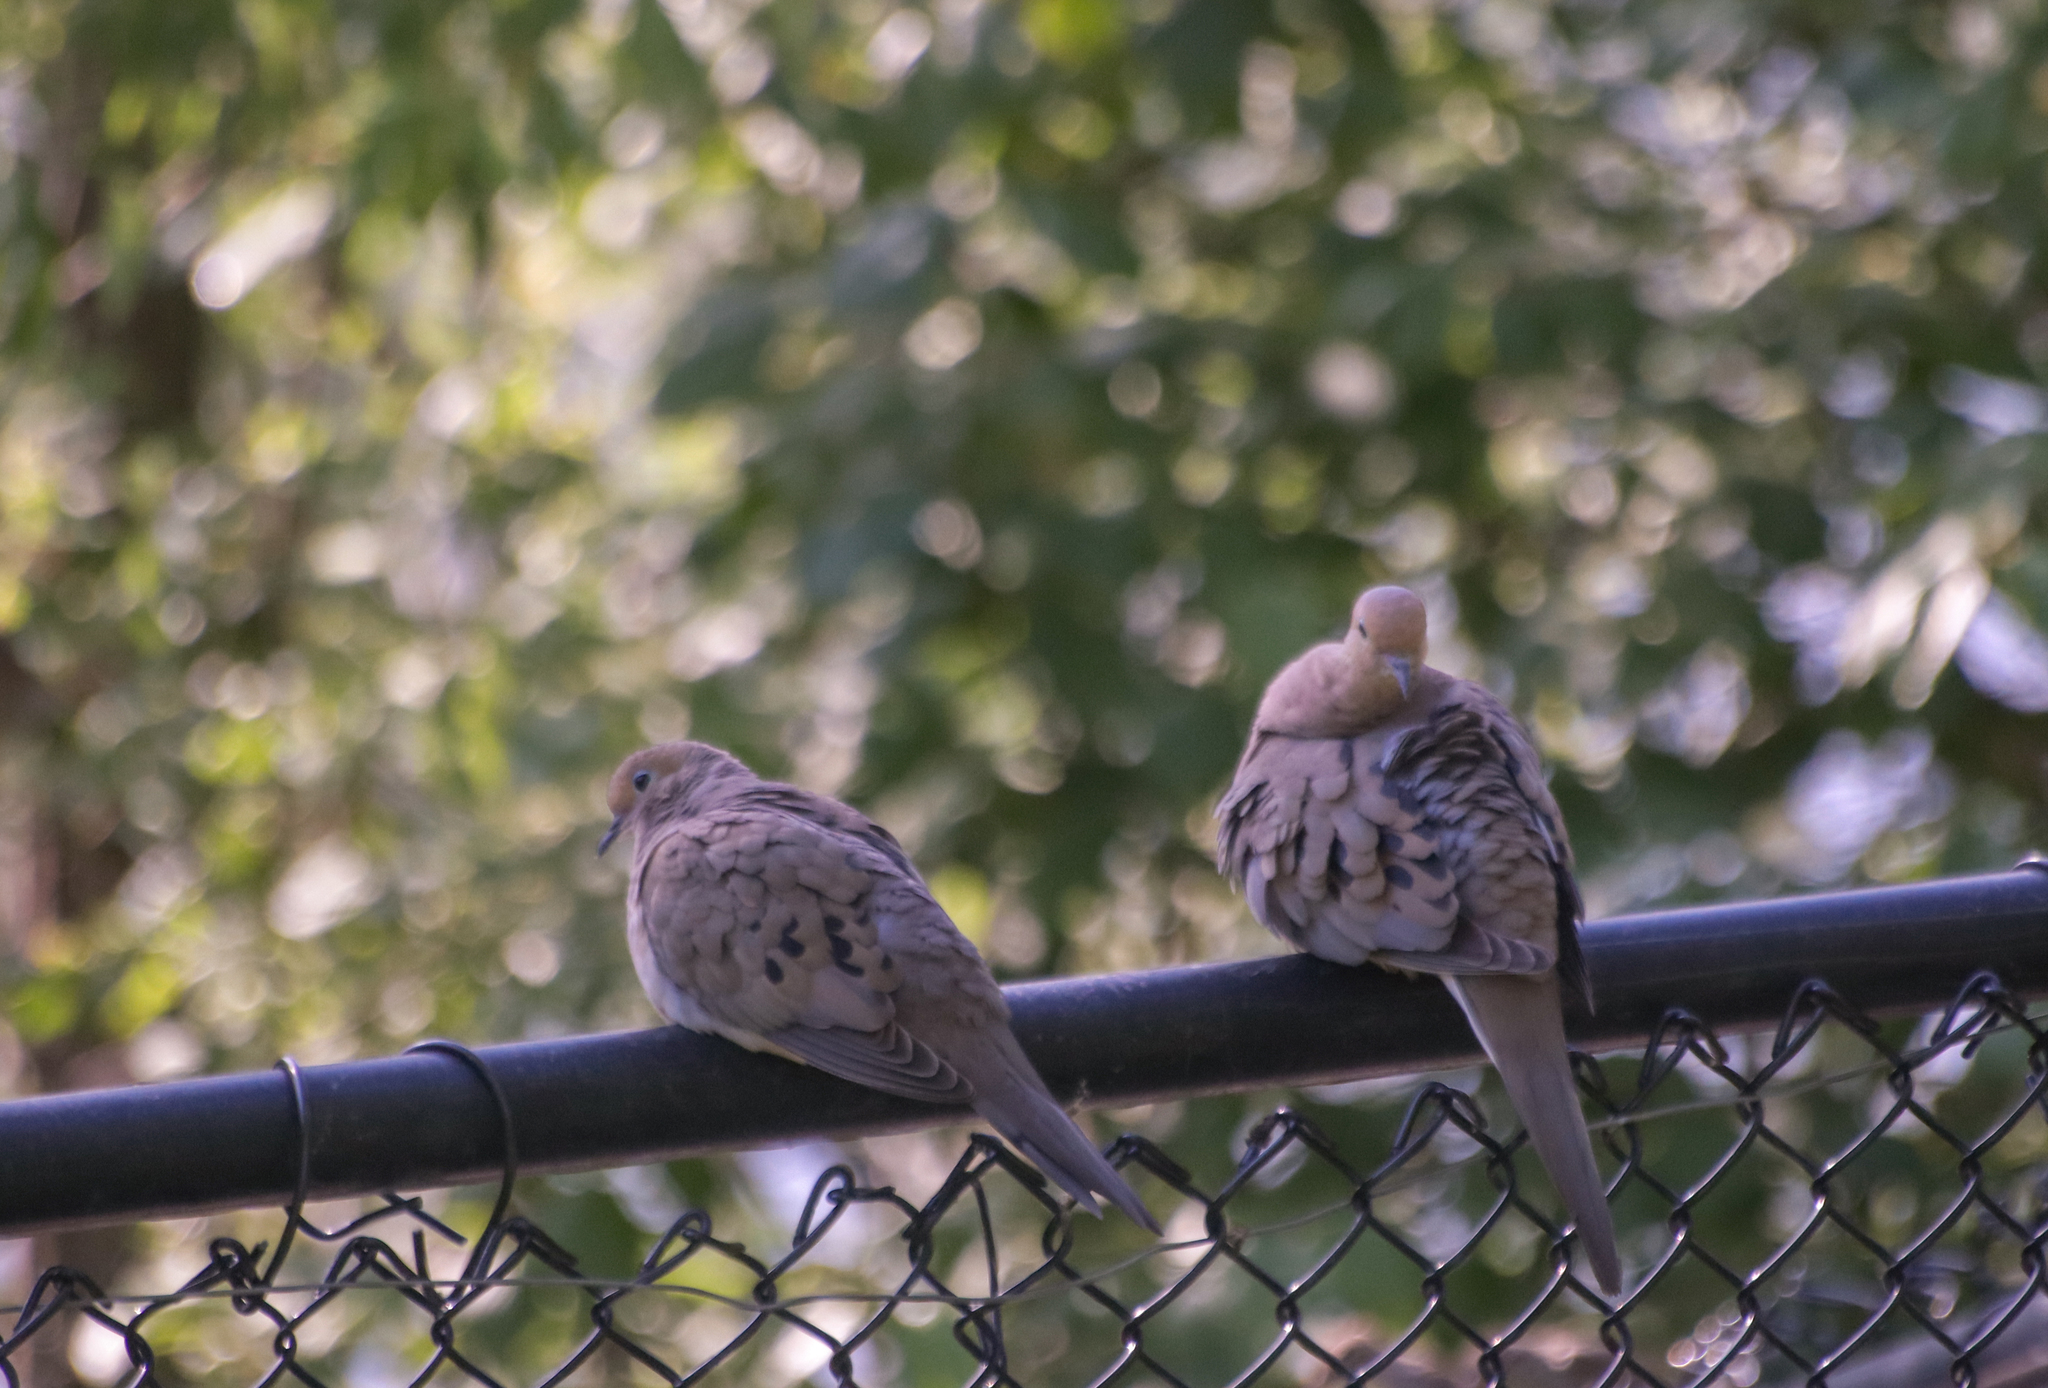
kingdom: Animalia
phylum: Chordata
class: Aves
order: Columbiformes
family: Columbidae
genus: Zenaida
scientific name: Zenaida macroura
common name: Mourning dove
